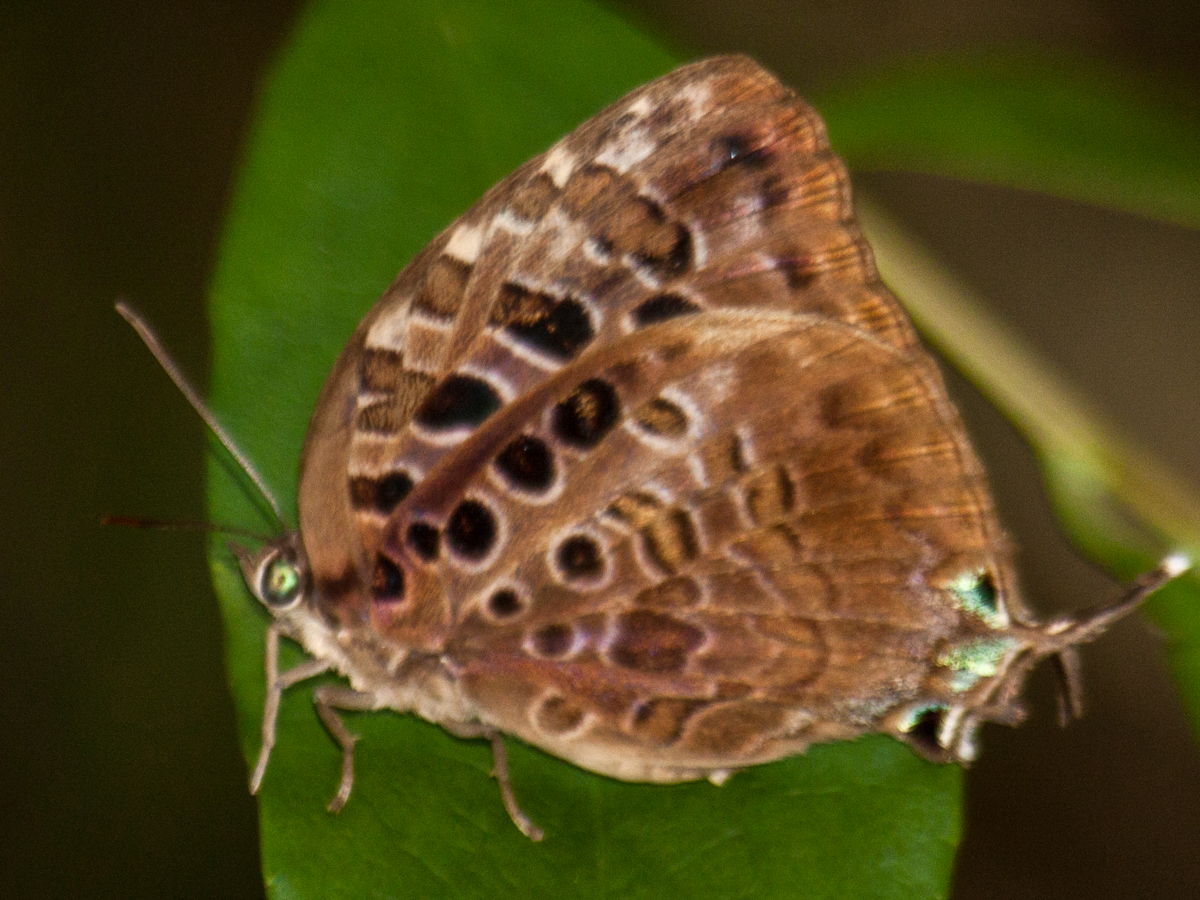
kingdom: Animalia
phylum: Arthropoda
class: Insecta
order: Lepidoptera
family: Lycaenidae
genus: Arhopala
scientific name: Arhopala anthelus
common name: Bushblue
